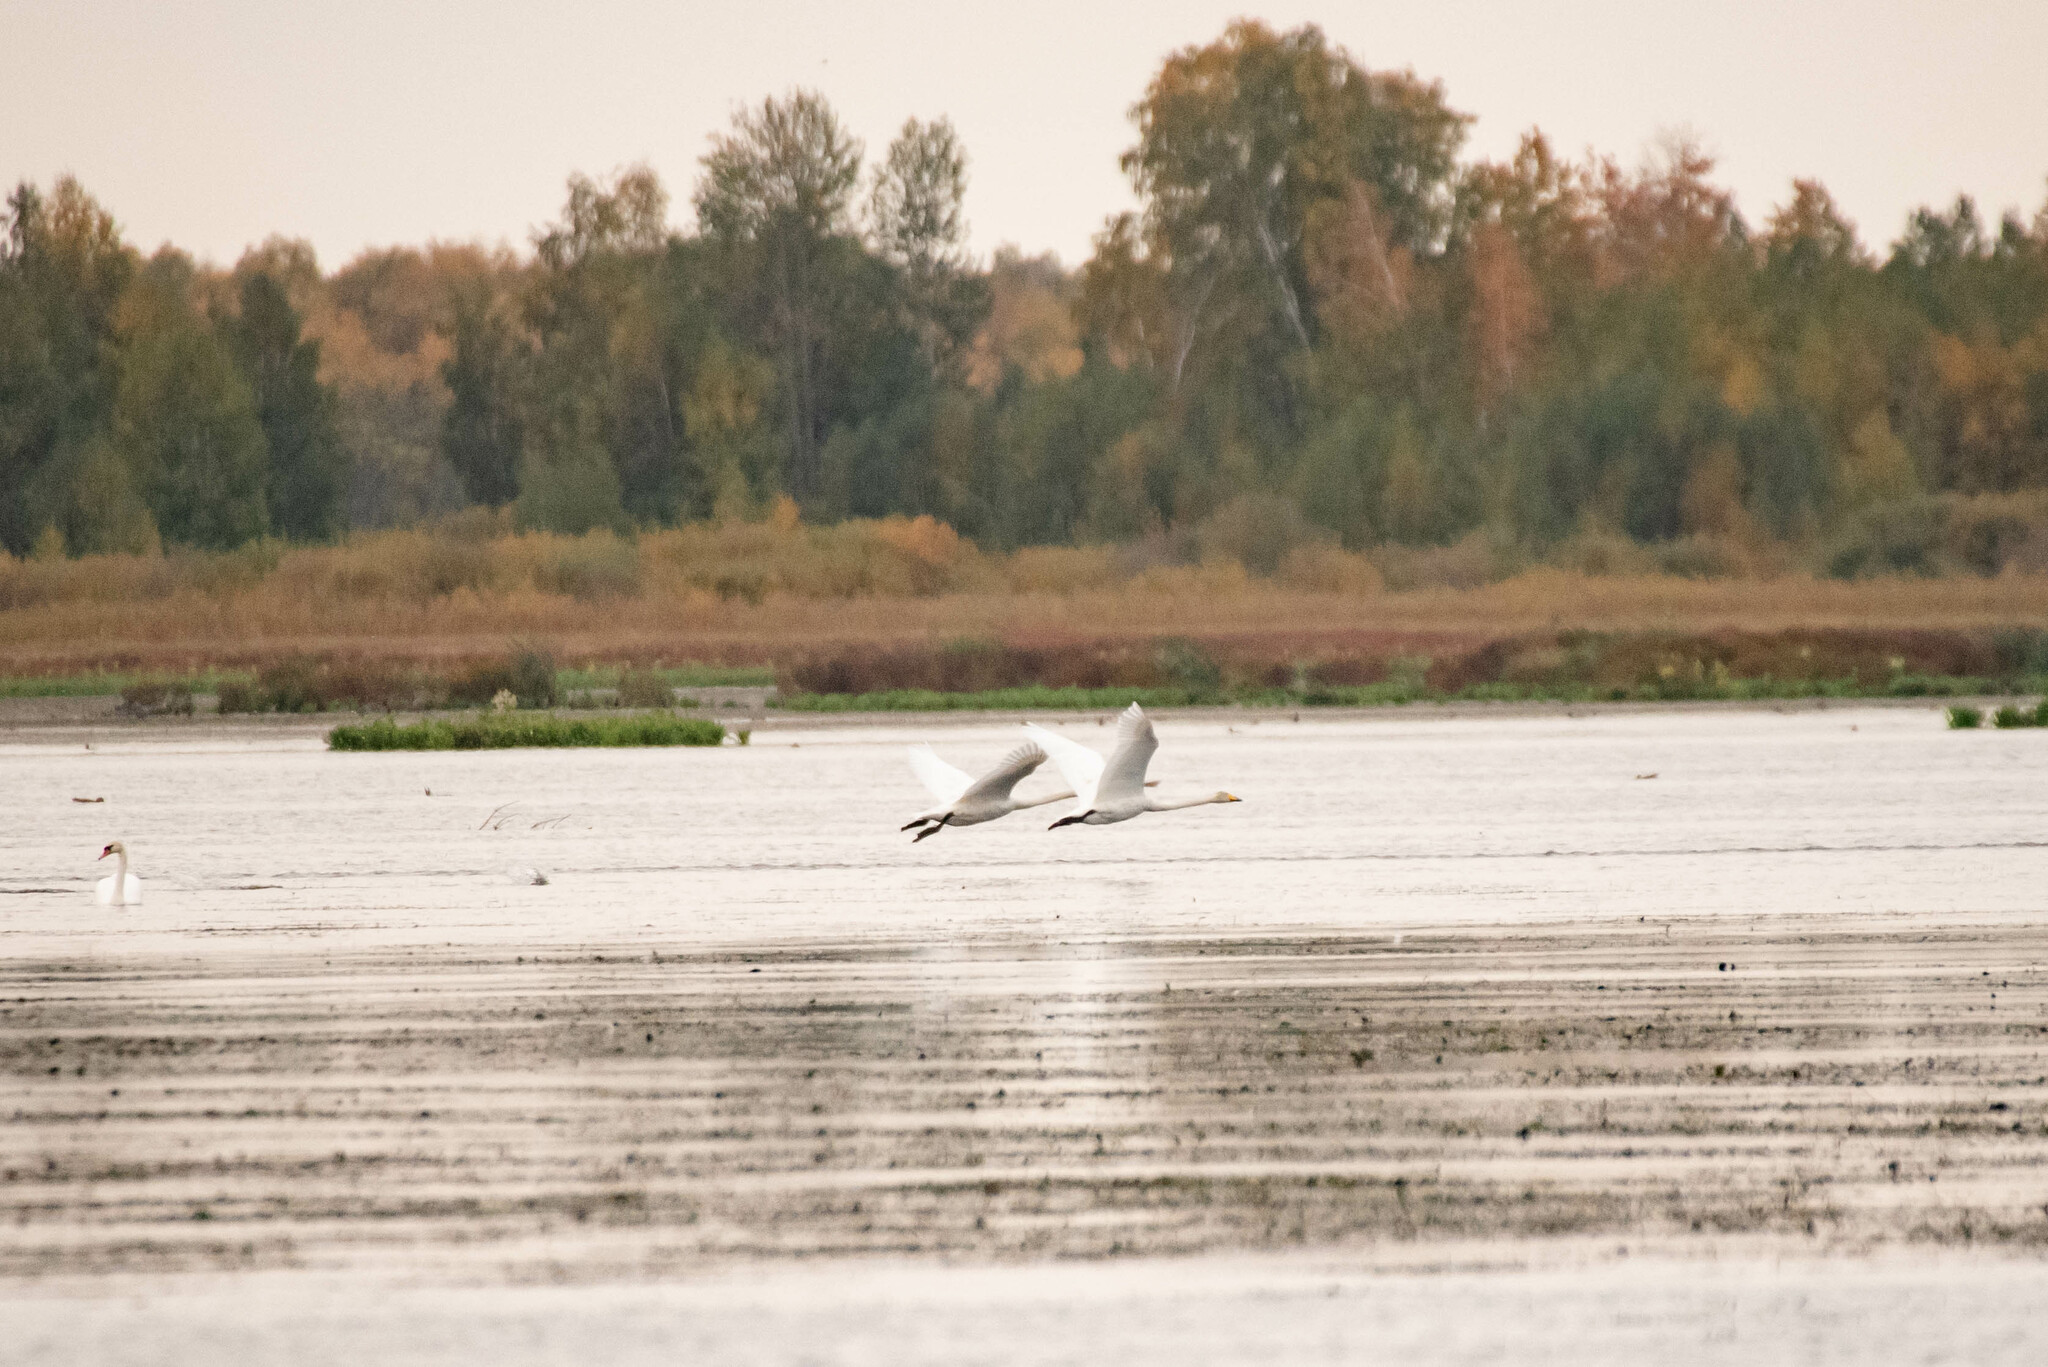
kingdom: Animalia
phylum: Chordata
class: Aves
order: Anseriformes
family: Anatidae
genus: Cygnus
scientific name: Cygnus cygnus
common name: Whooper swan
